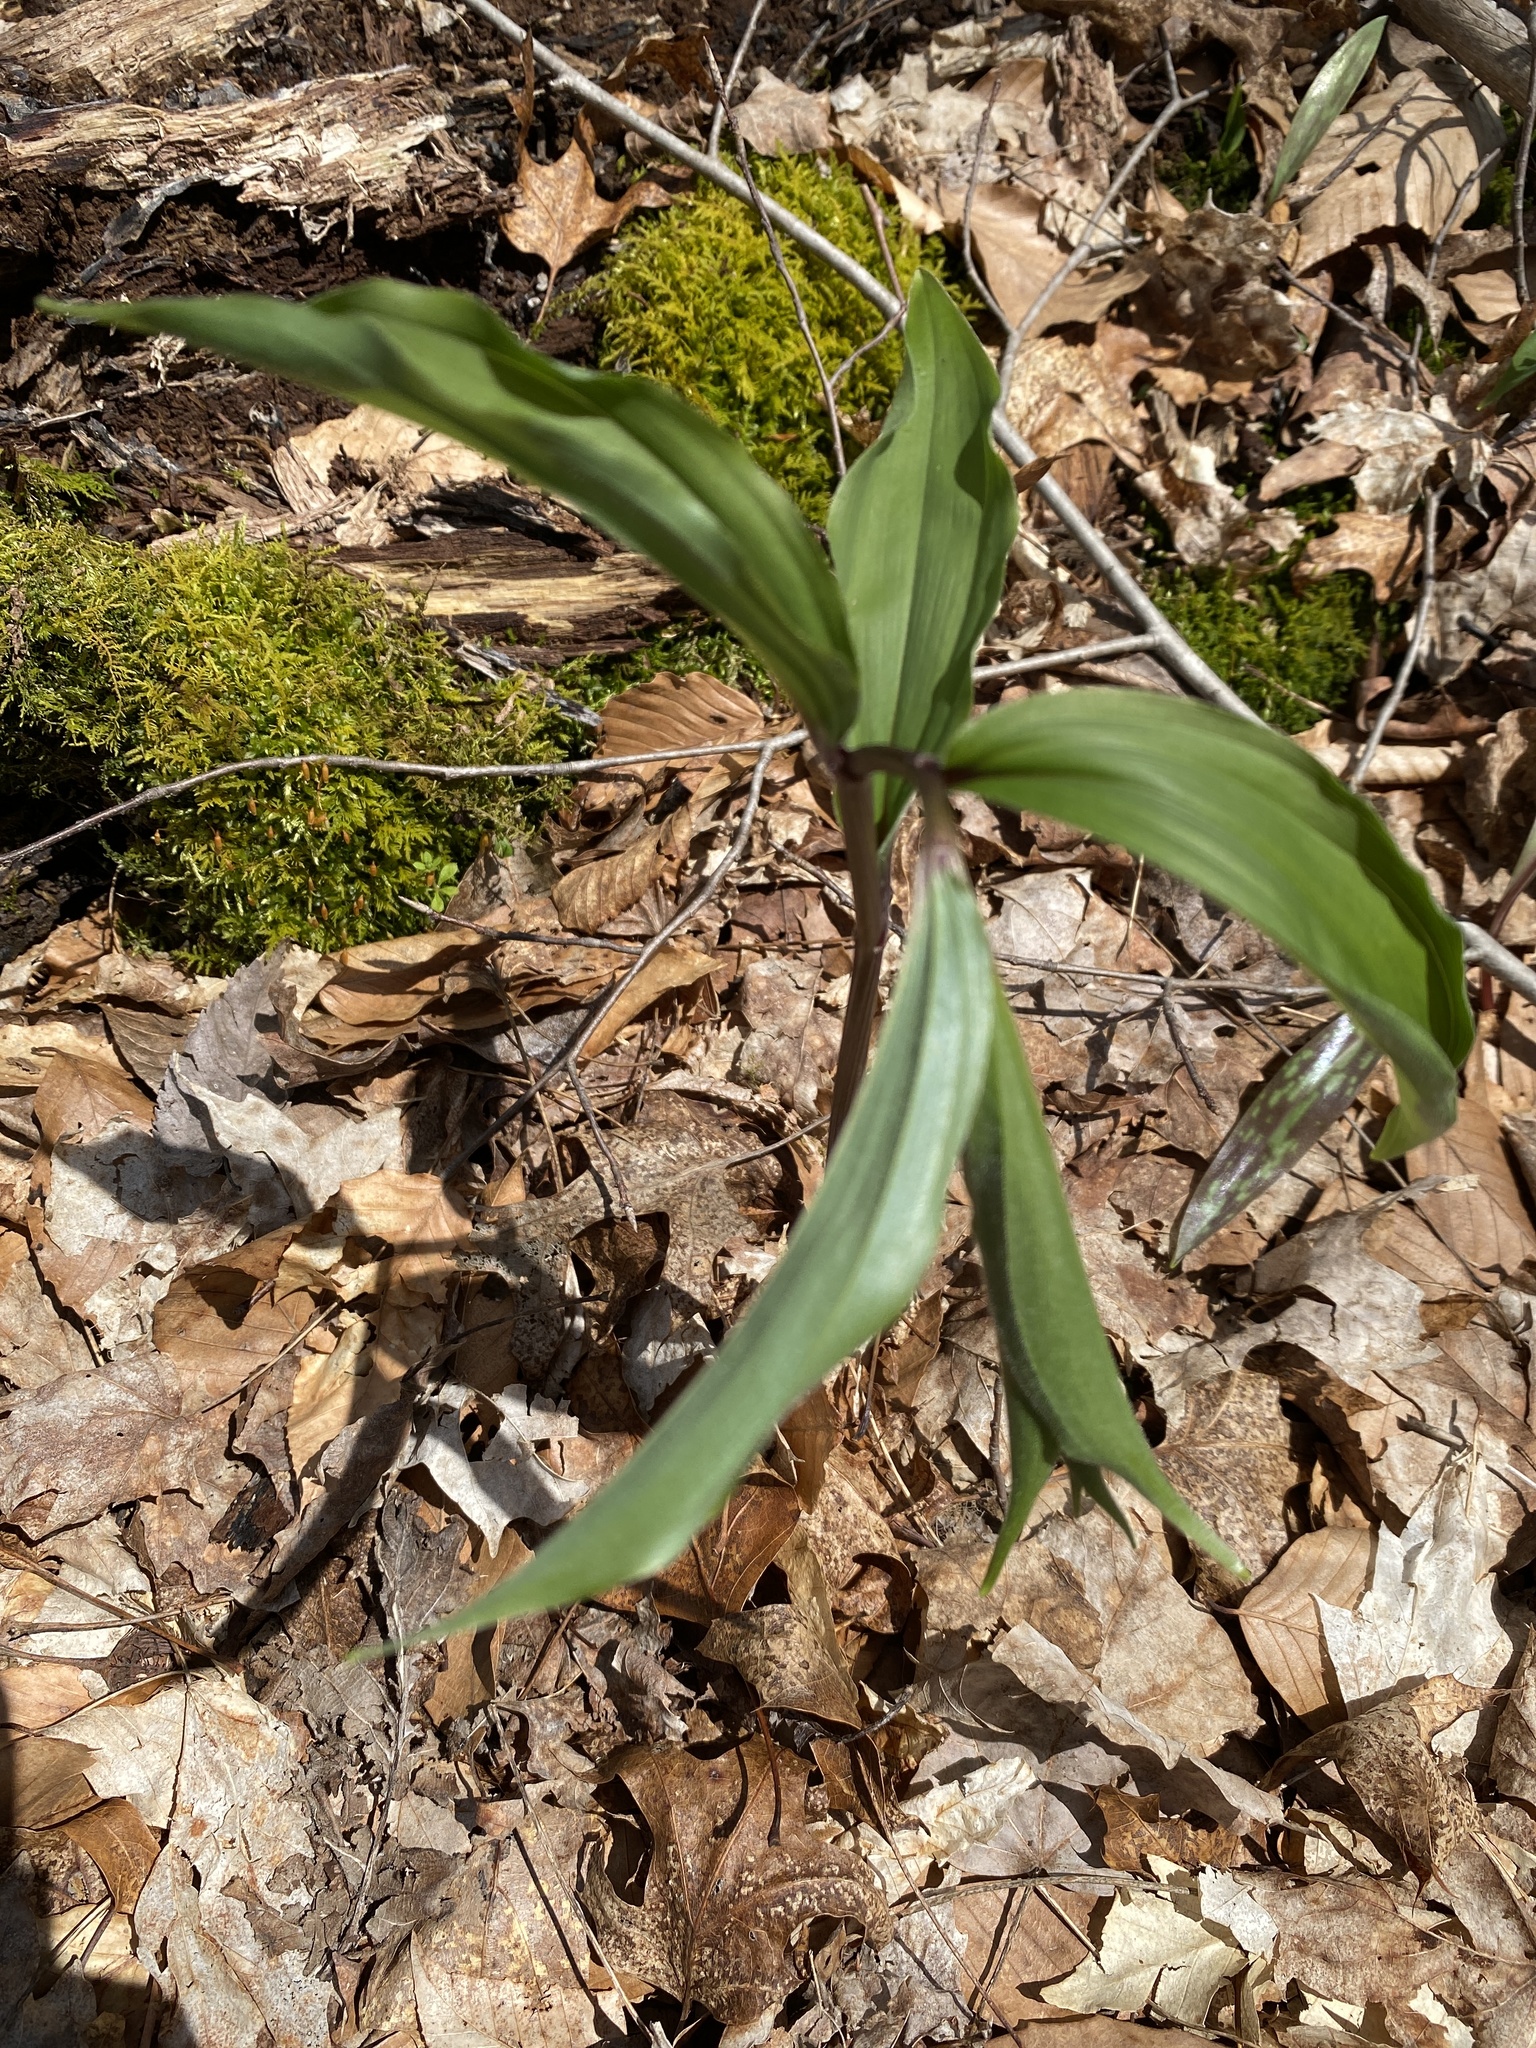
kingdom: Plantae
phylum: Tracheophyta
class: Liliopsida
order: Asparagales
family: Asparagaceae
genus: Maianthemum
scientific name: Maianthemum racemosum
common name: False spikenard
